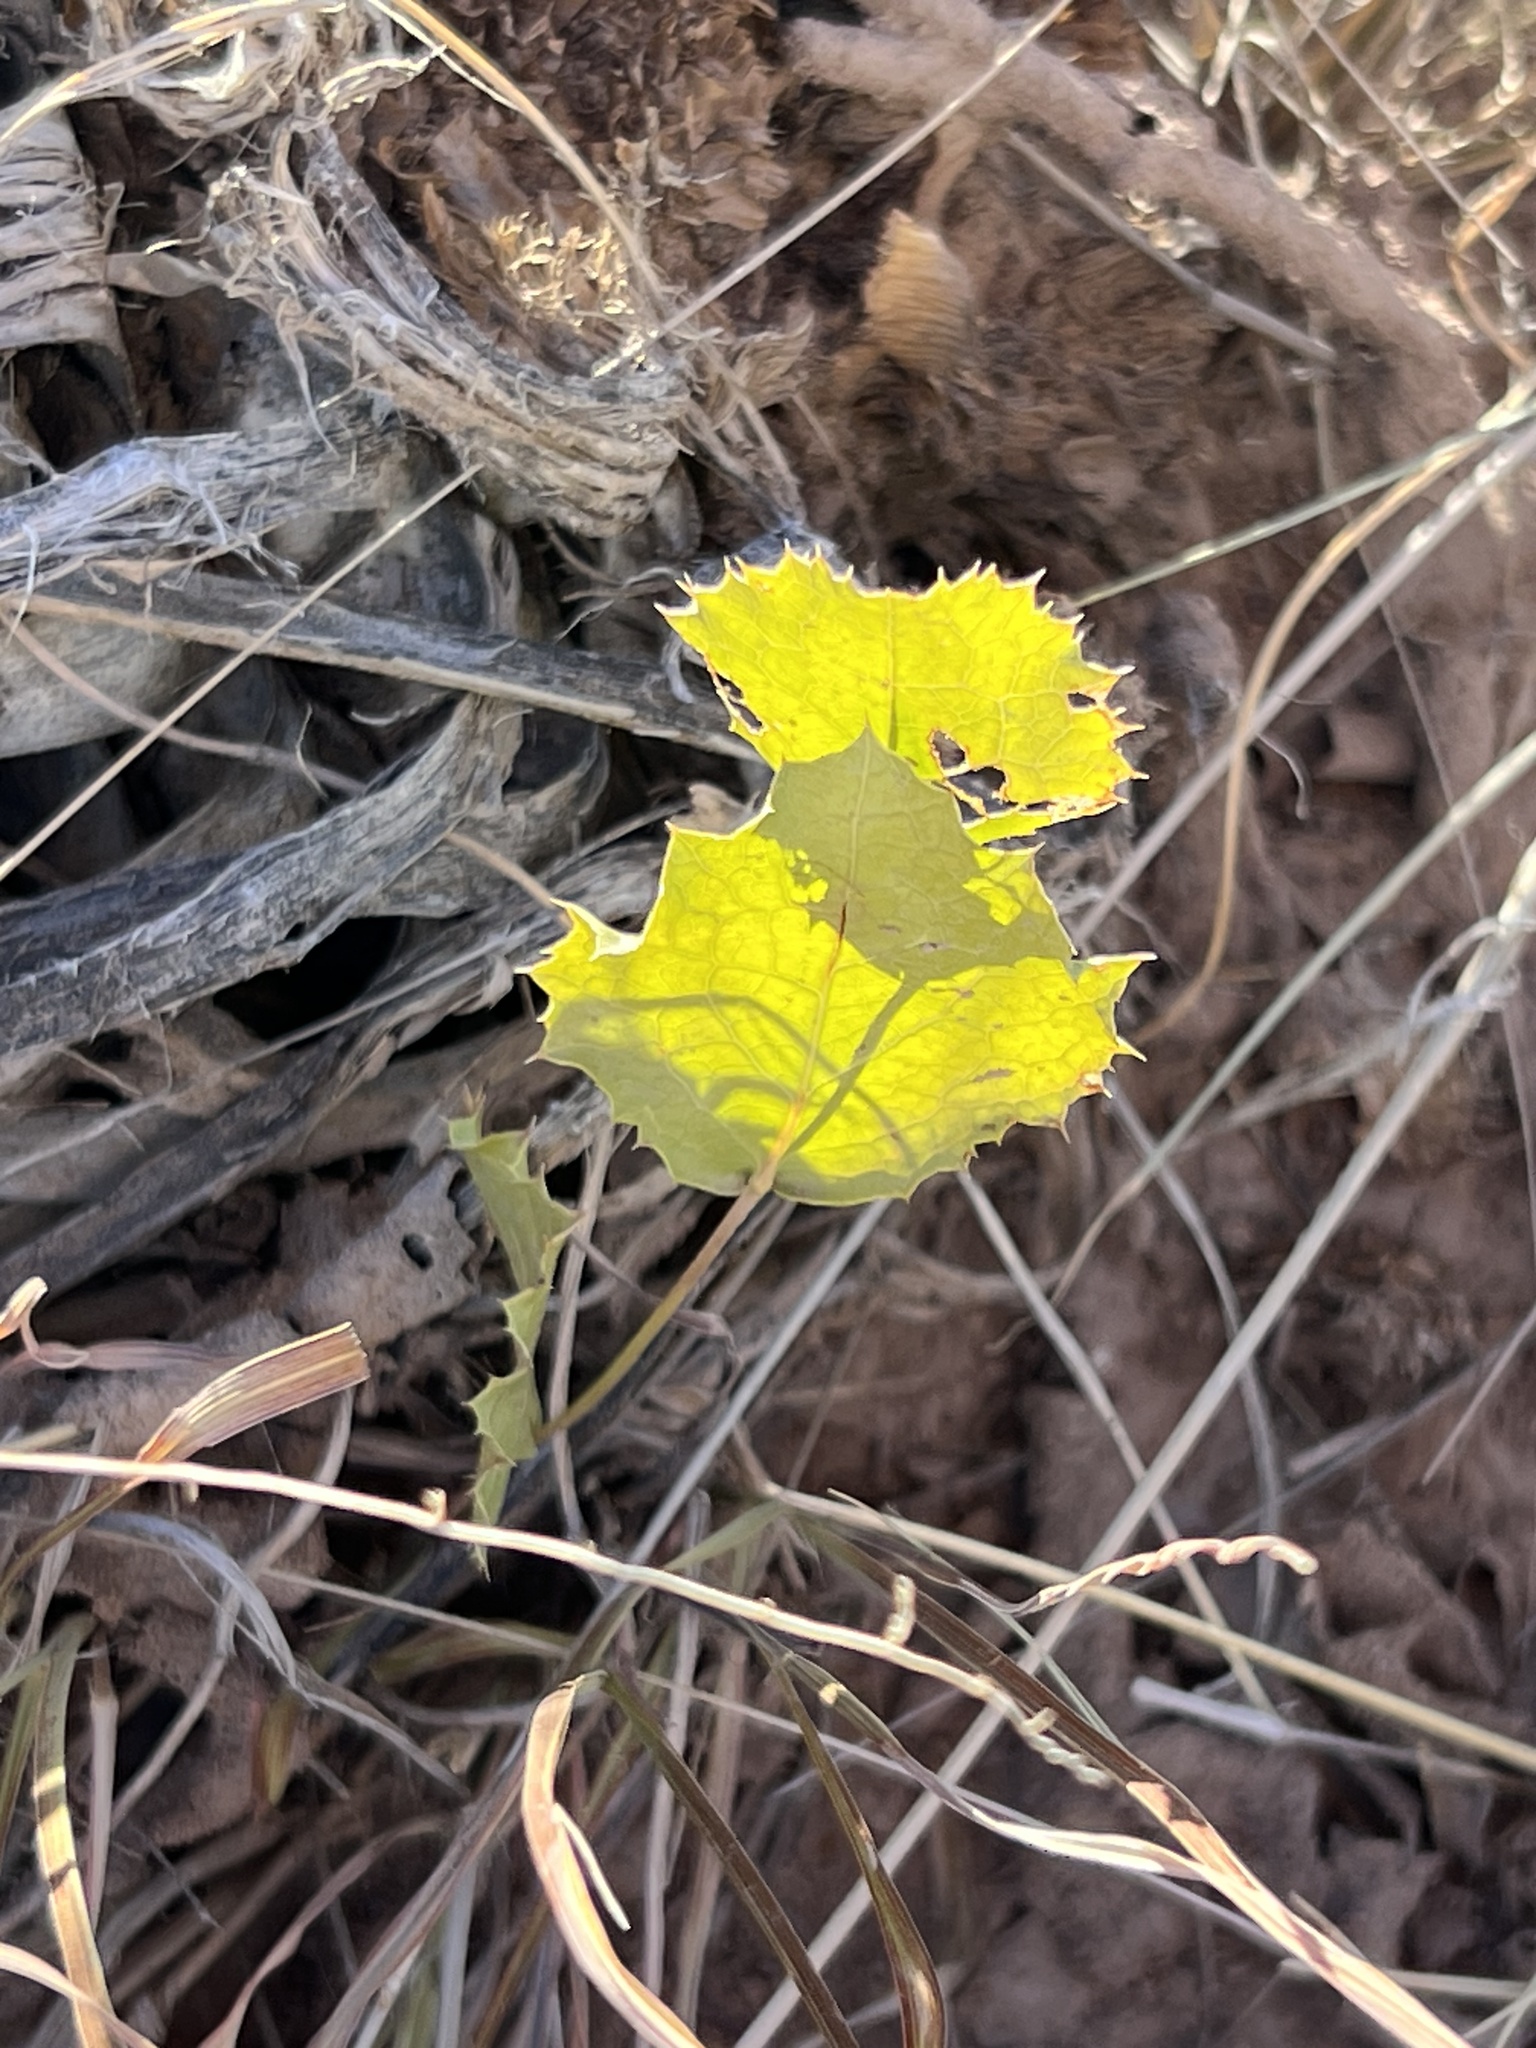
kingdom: Plantae
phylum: Tracheophyta
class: Magnoliopsida
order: Asterales
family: Asteraceae
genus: Acourtia
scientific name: Acourtia nana
